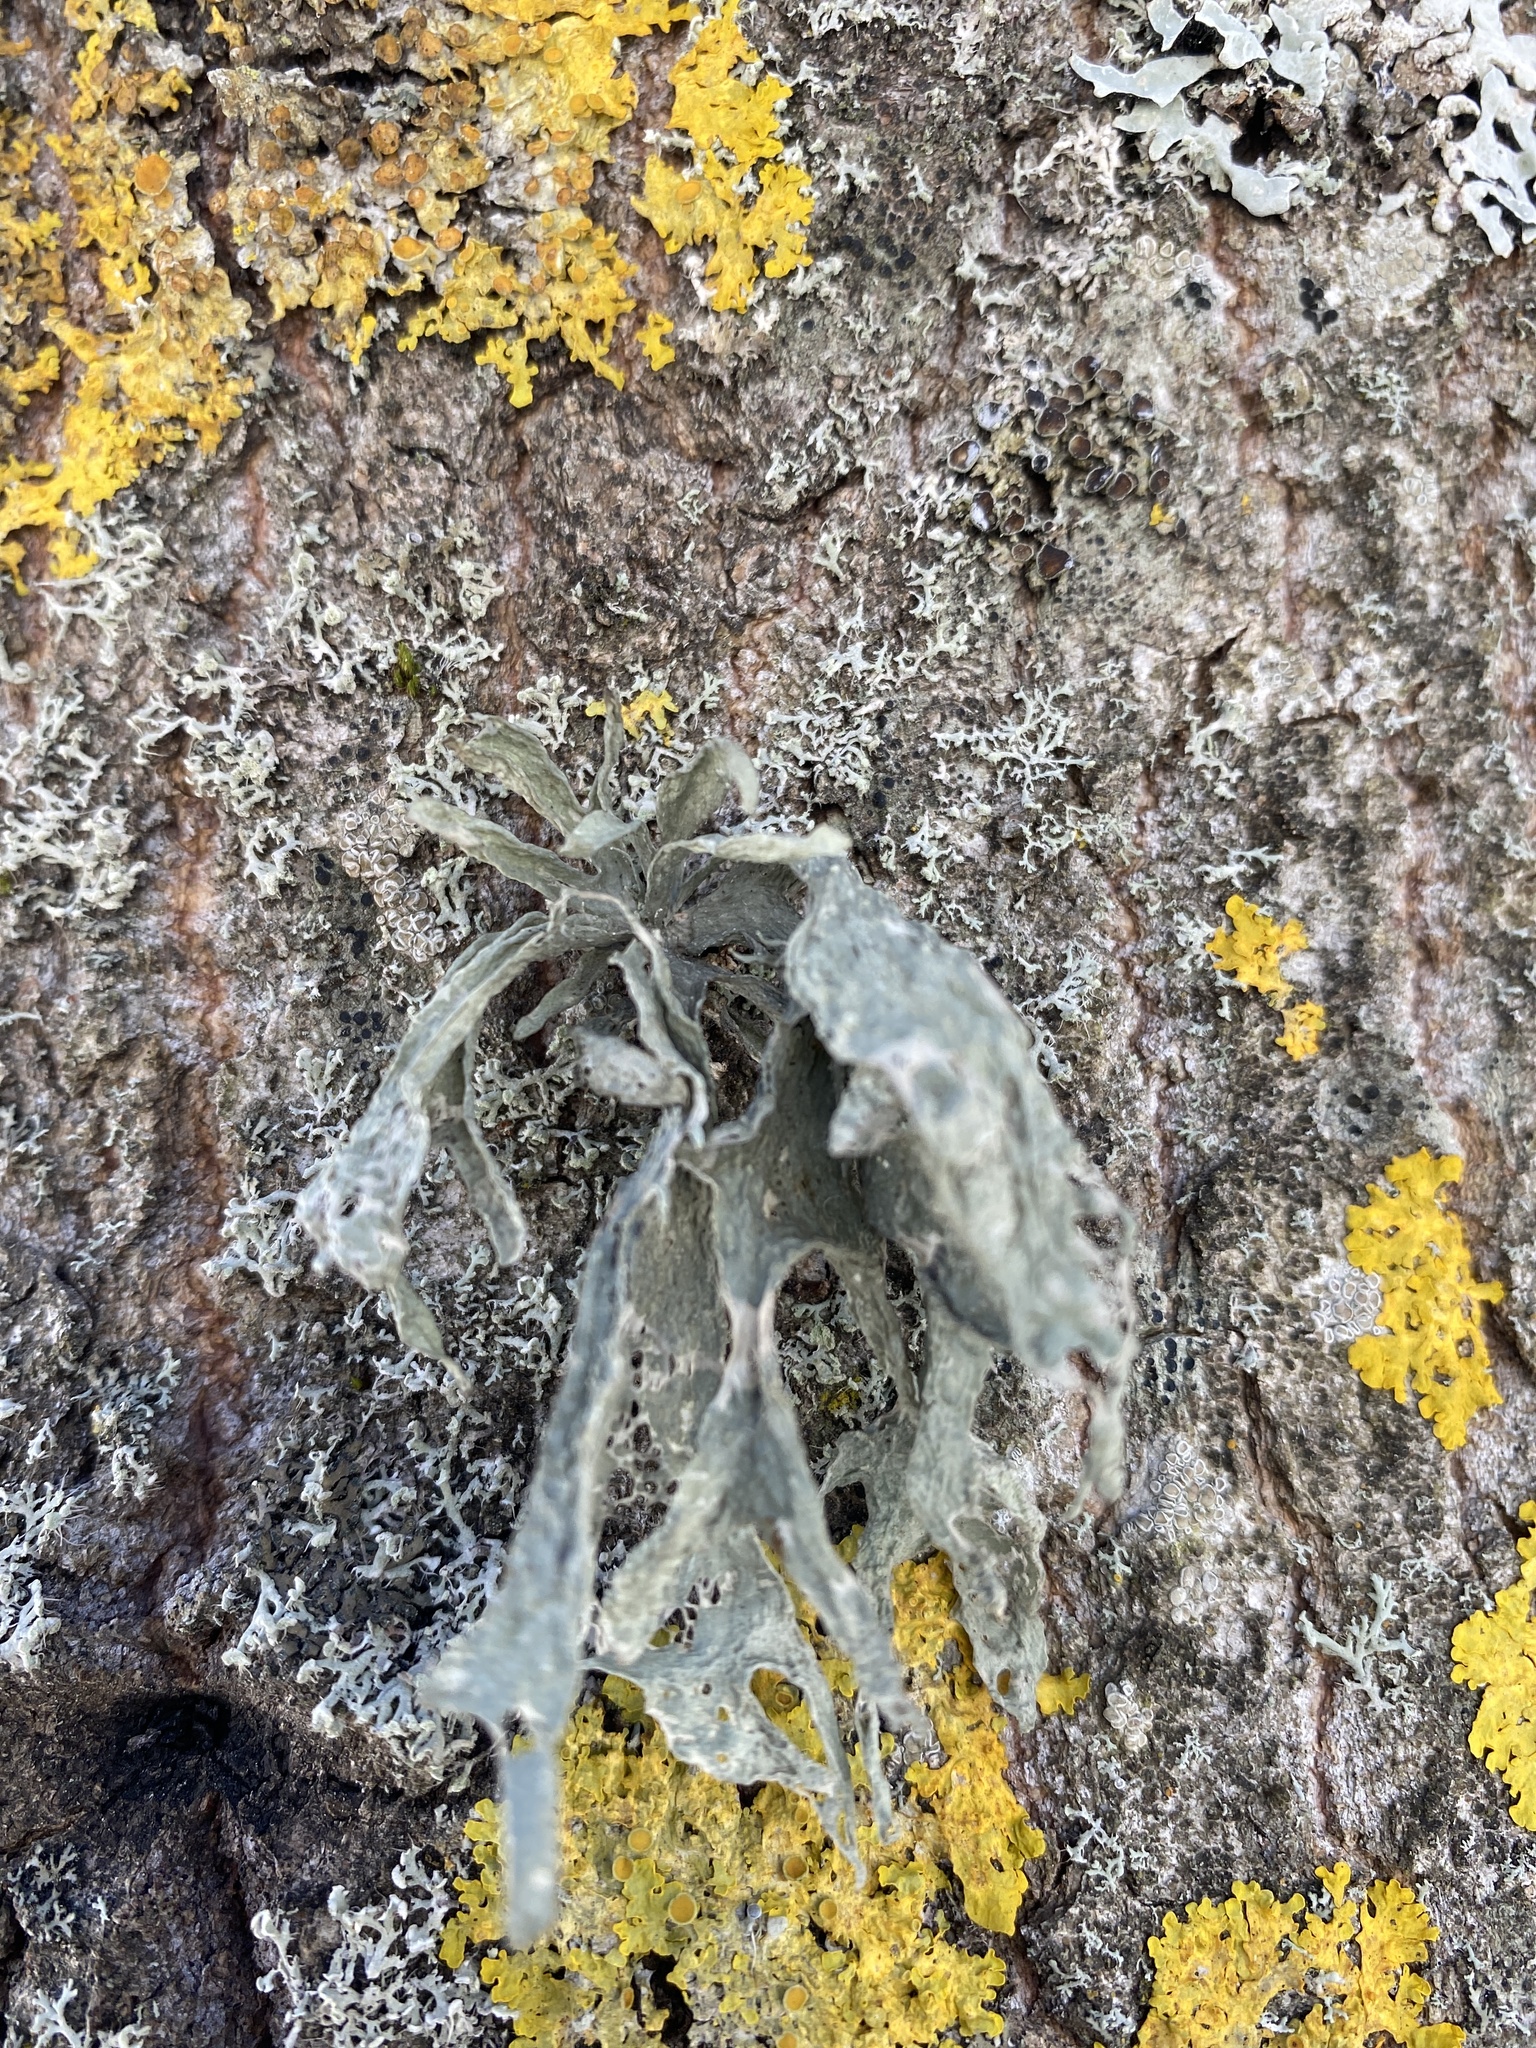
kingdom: Fungi
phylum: Ascomycota
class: Lecanoromycetes
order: Lecanorales
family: Ramalinaceae
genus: Ramalina
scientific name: Ramalina fraxinea
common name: Cartilage lichen
